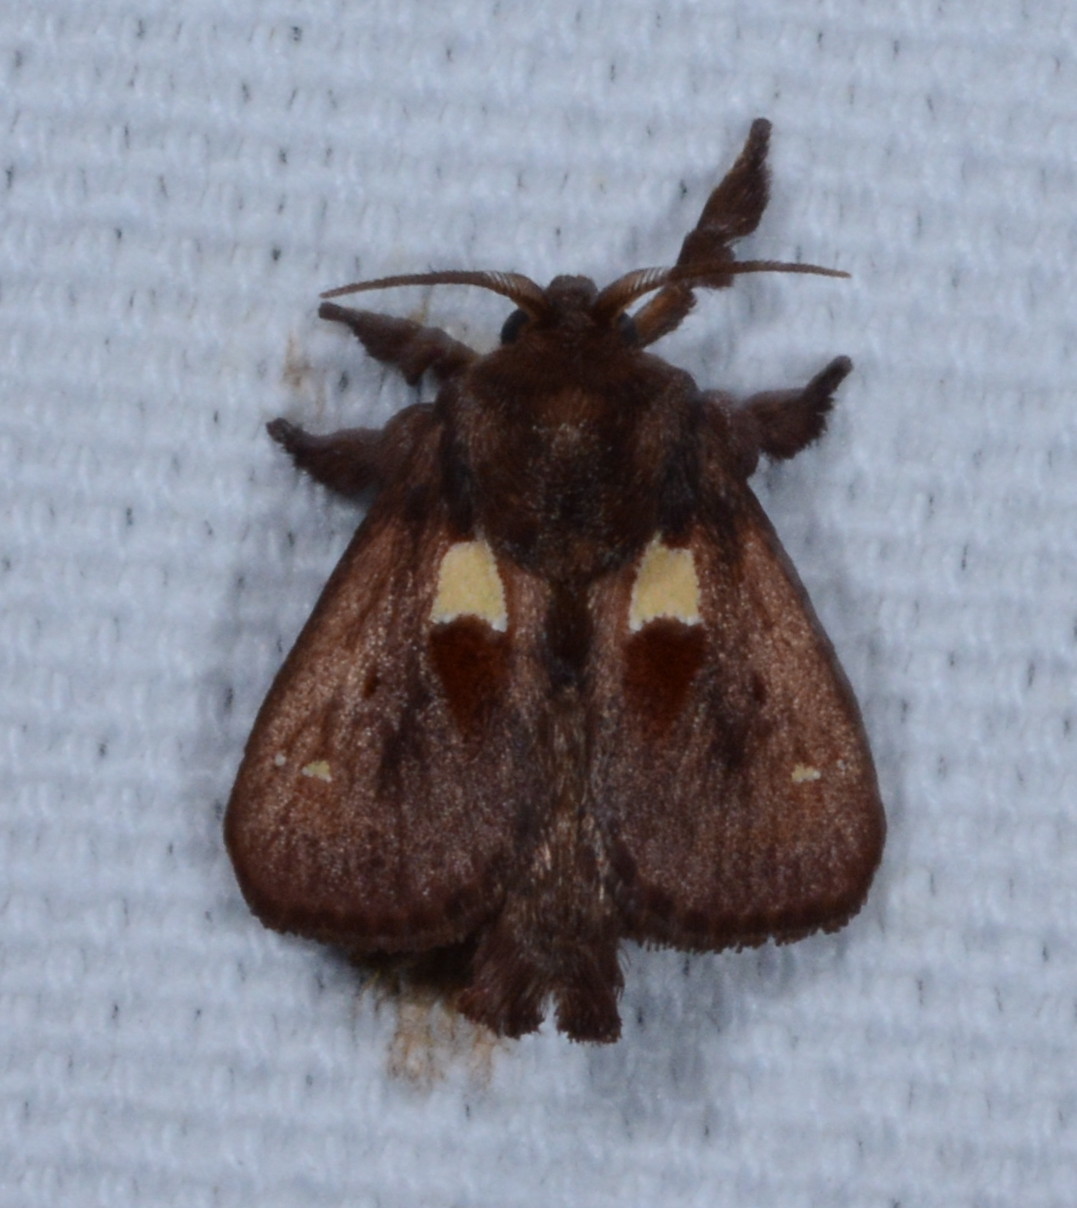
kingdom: Animalia
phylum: Arthropoda
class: Insecta
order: Lepidoptera
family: Limacodidae
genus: Euclea
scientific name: Euclea delphinii
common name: Spiny oak-slug moth
